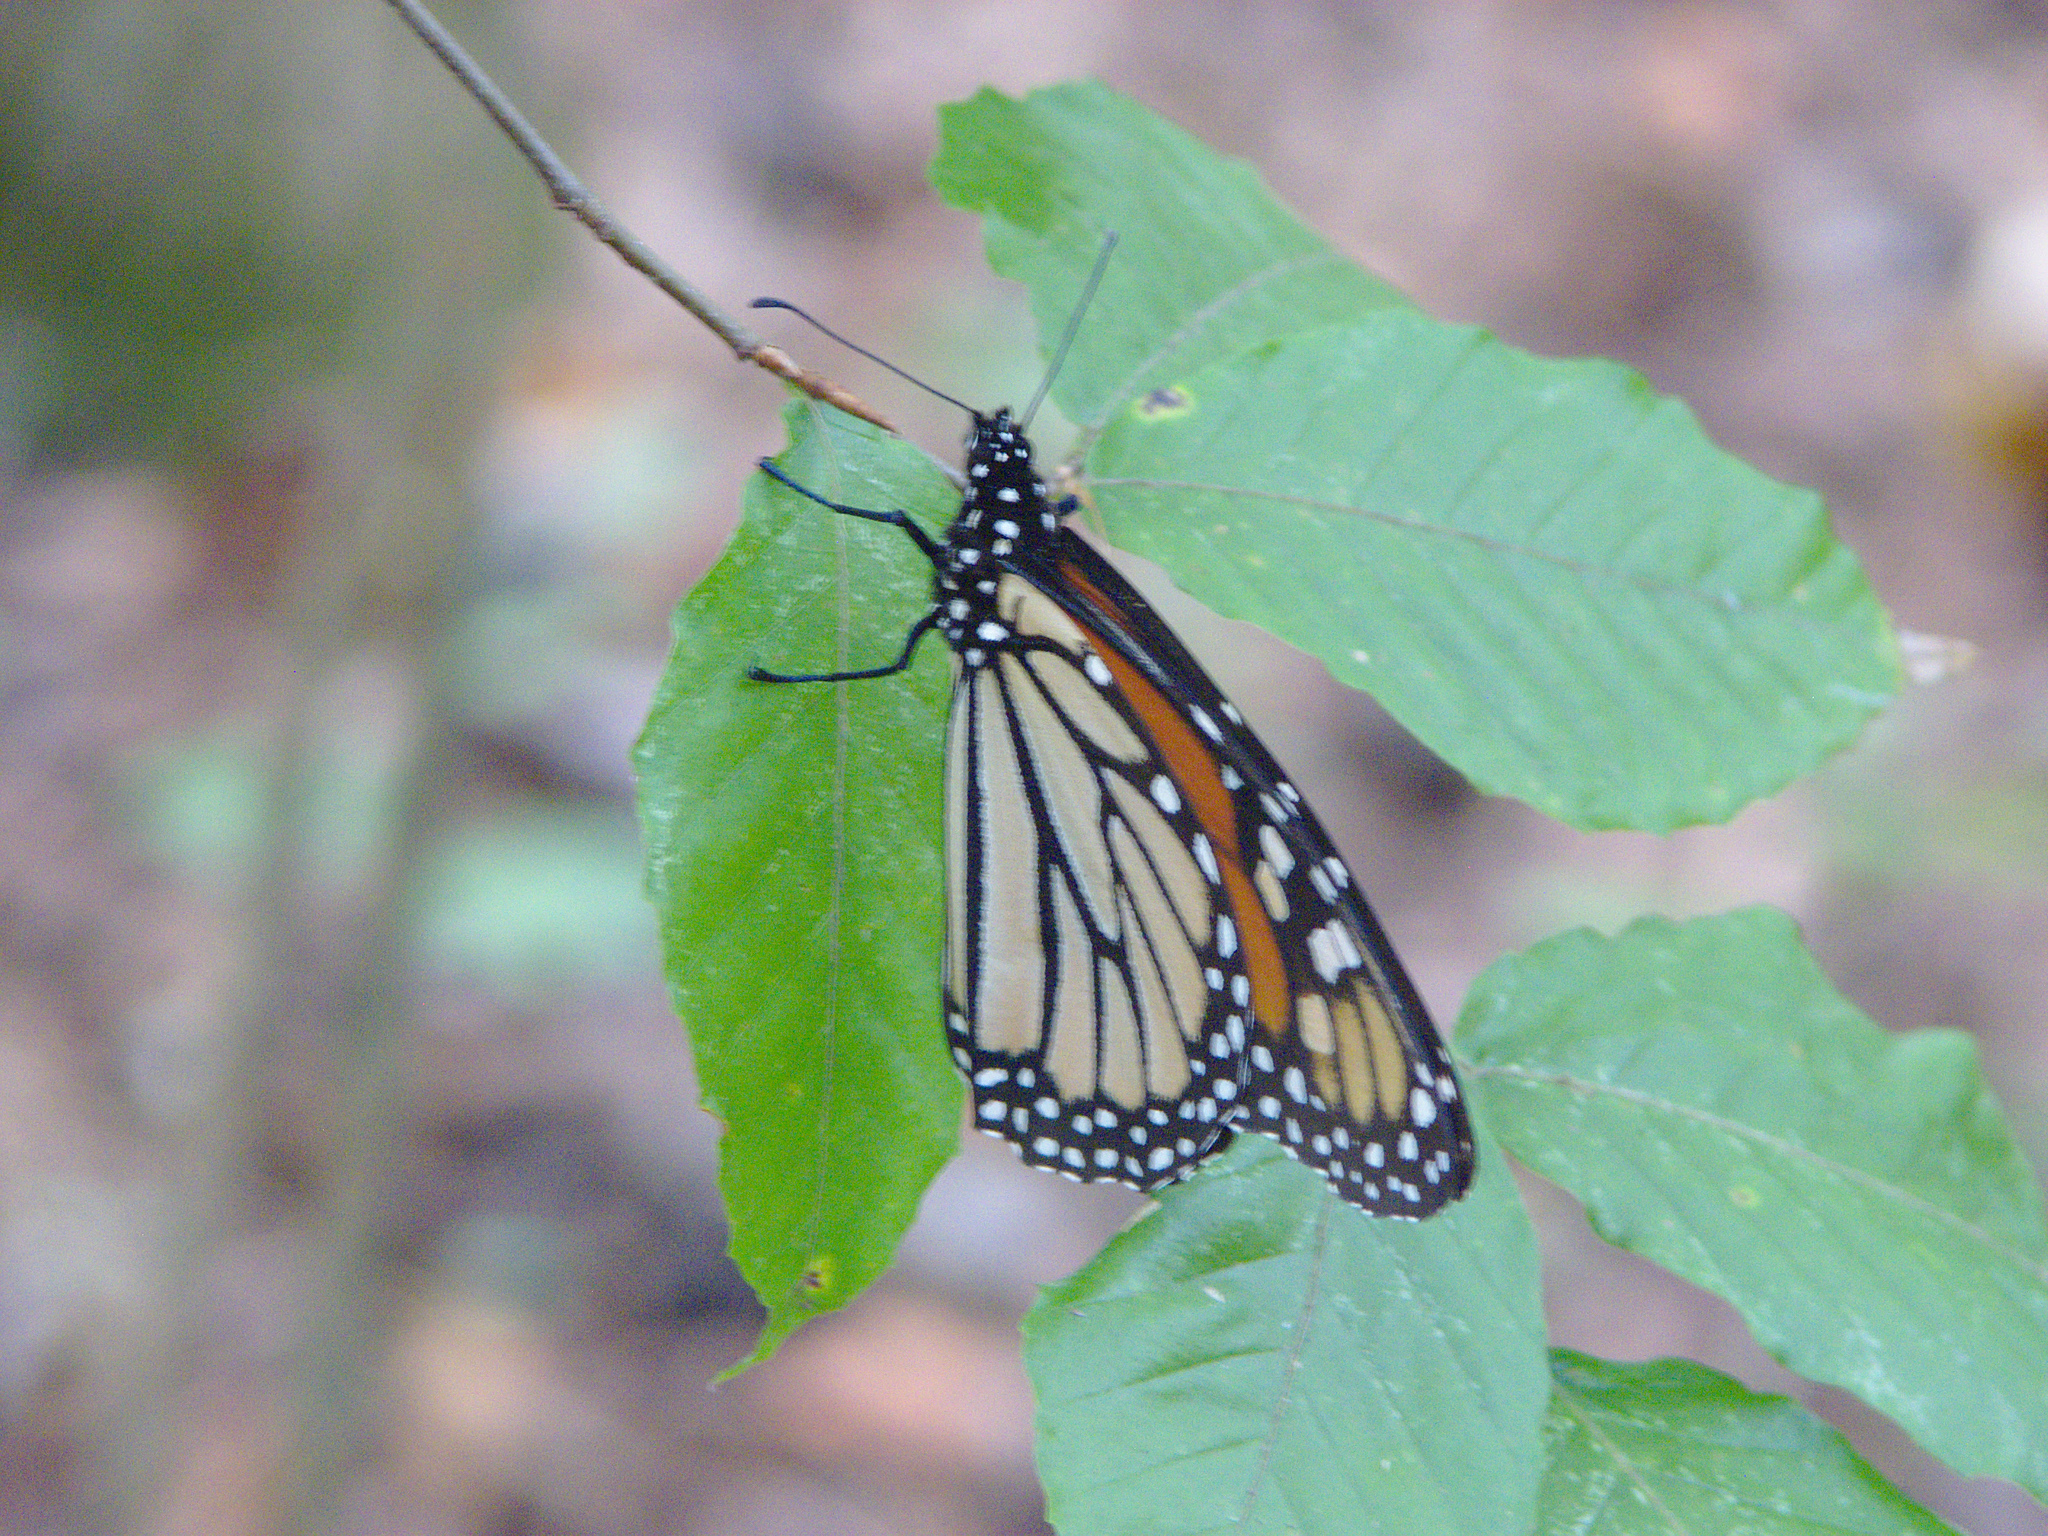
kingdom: Animalia
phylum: Arthropoda
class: Insecta
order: Lepidoptera
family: Nymphalidae
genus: Danaus
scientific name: Danaus plexippus
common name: Monarch
